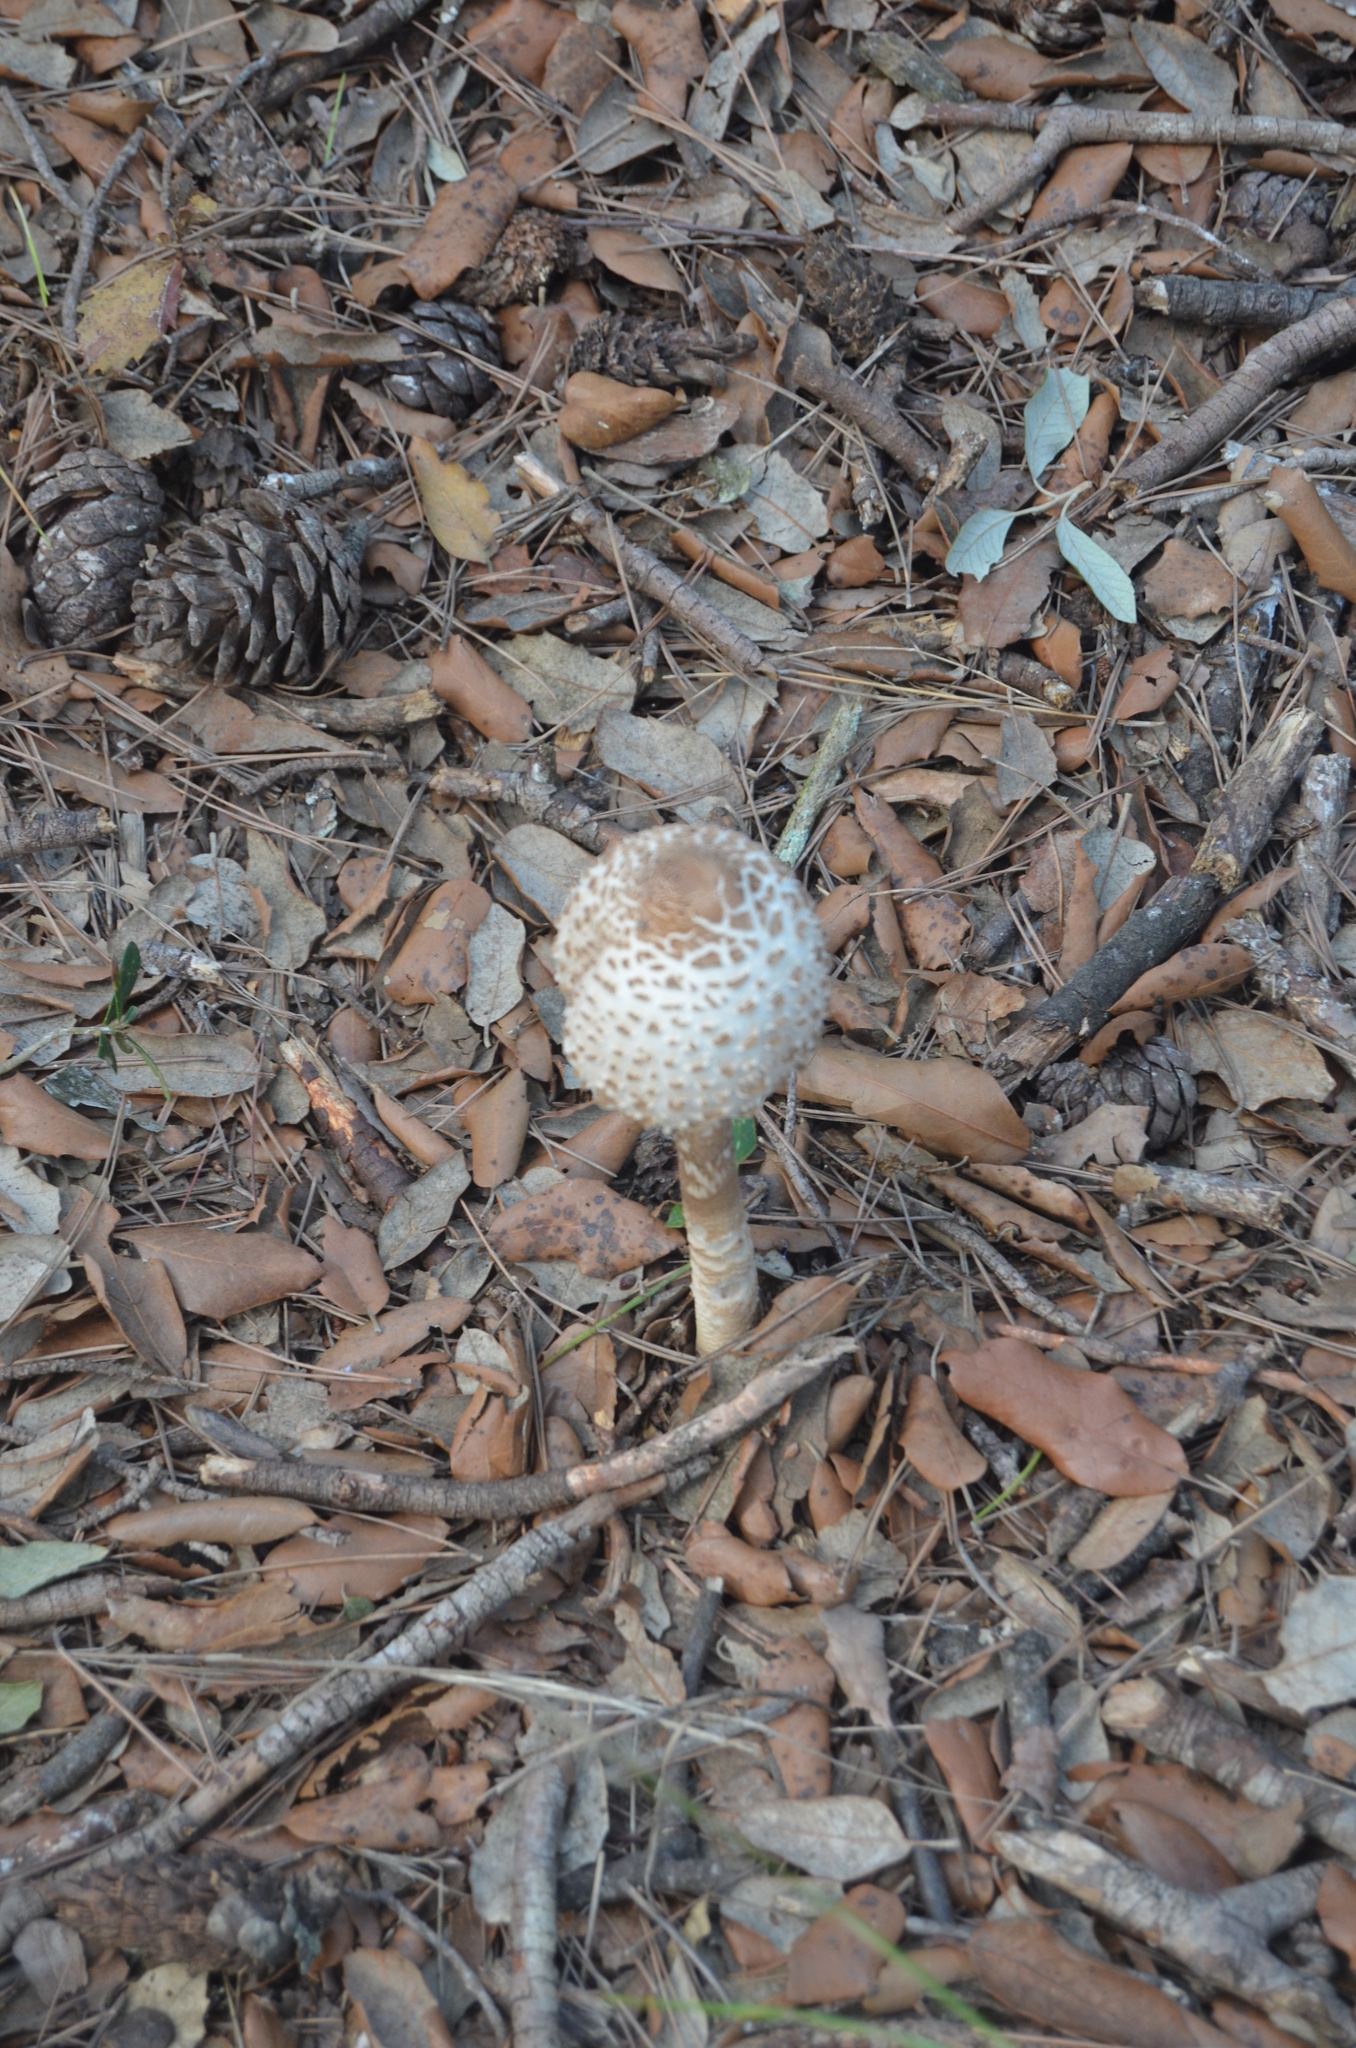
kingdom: Fungi
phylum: Basidiomycota
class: Agaricomycetes
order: Agaricales
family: Agaricaceae
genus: Macrolepiota
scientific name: Macrolepiota procera
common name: Parasol
